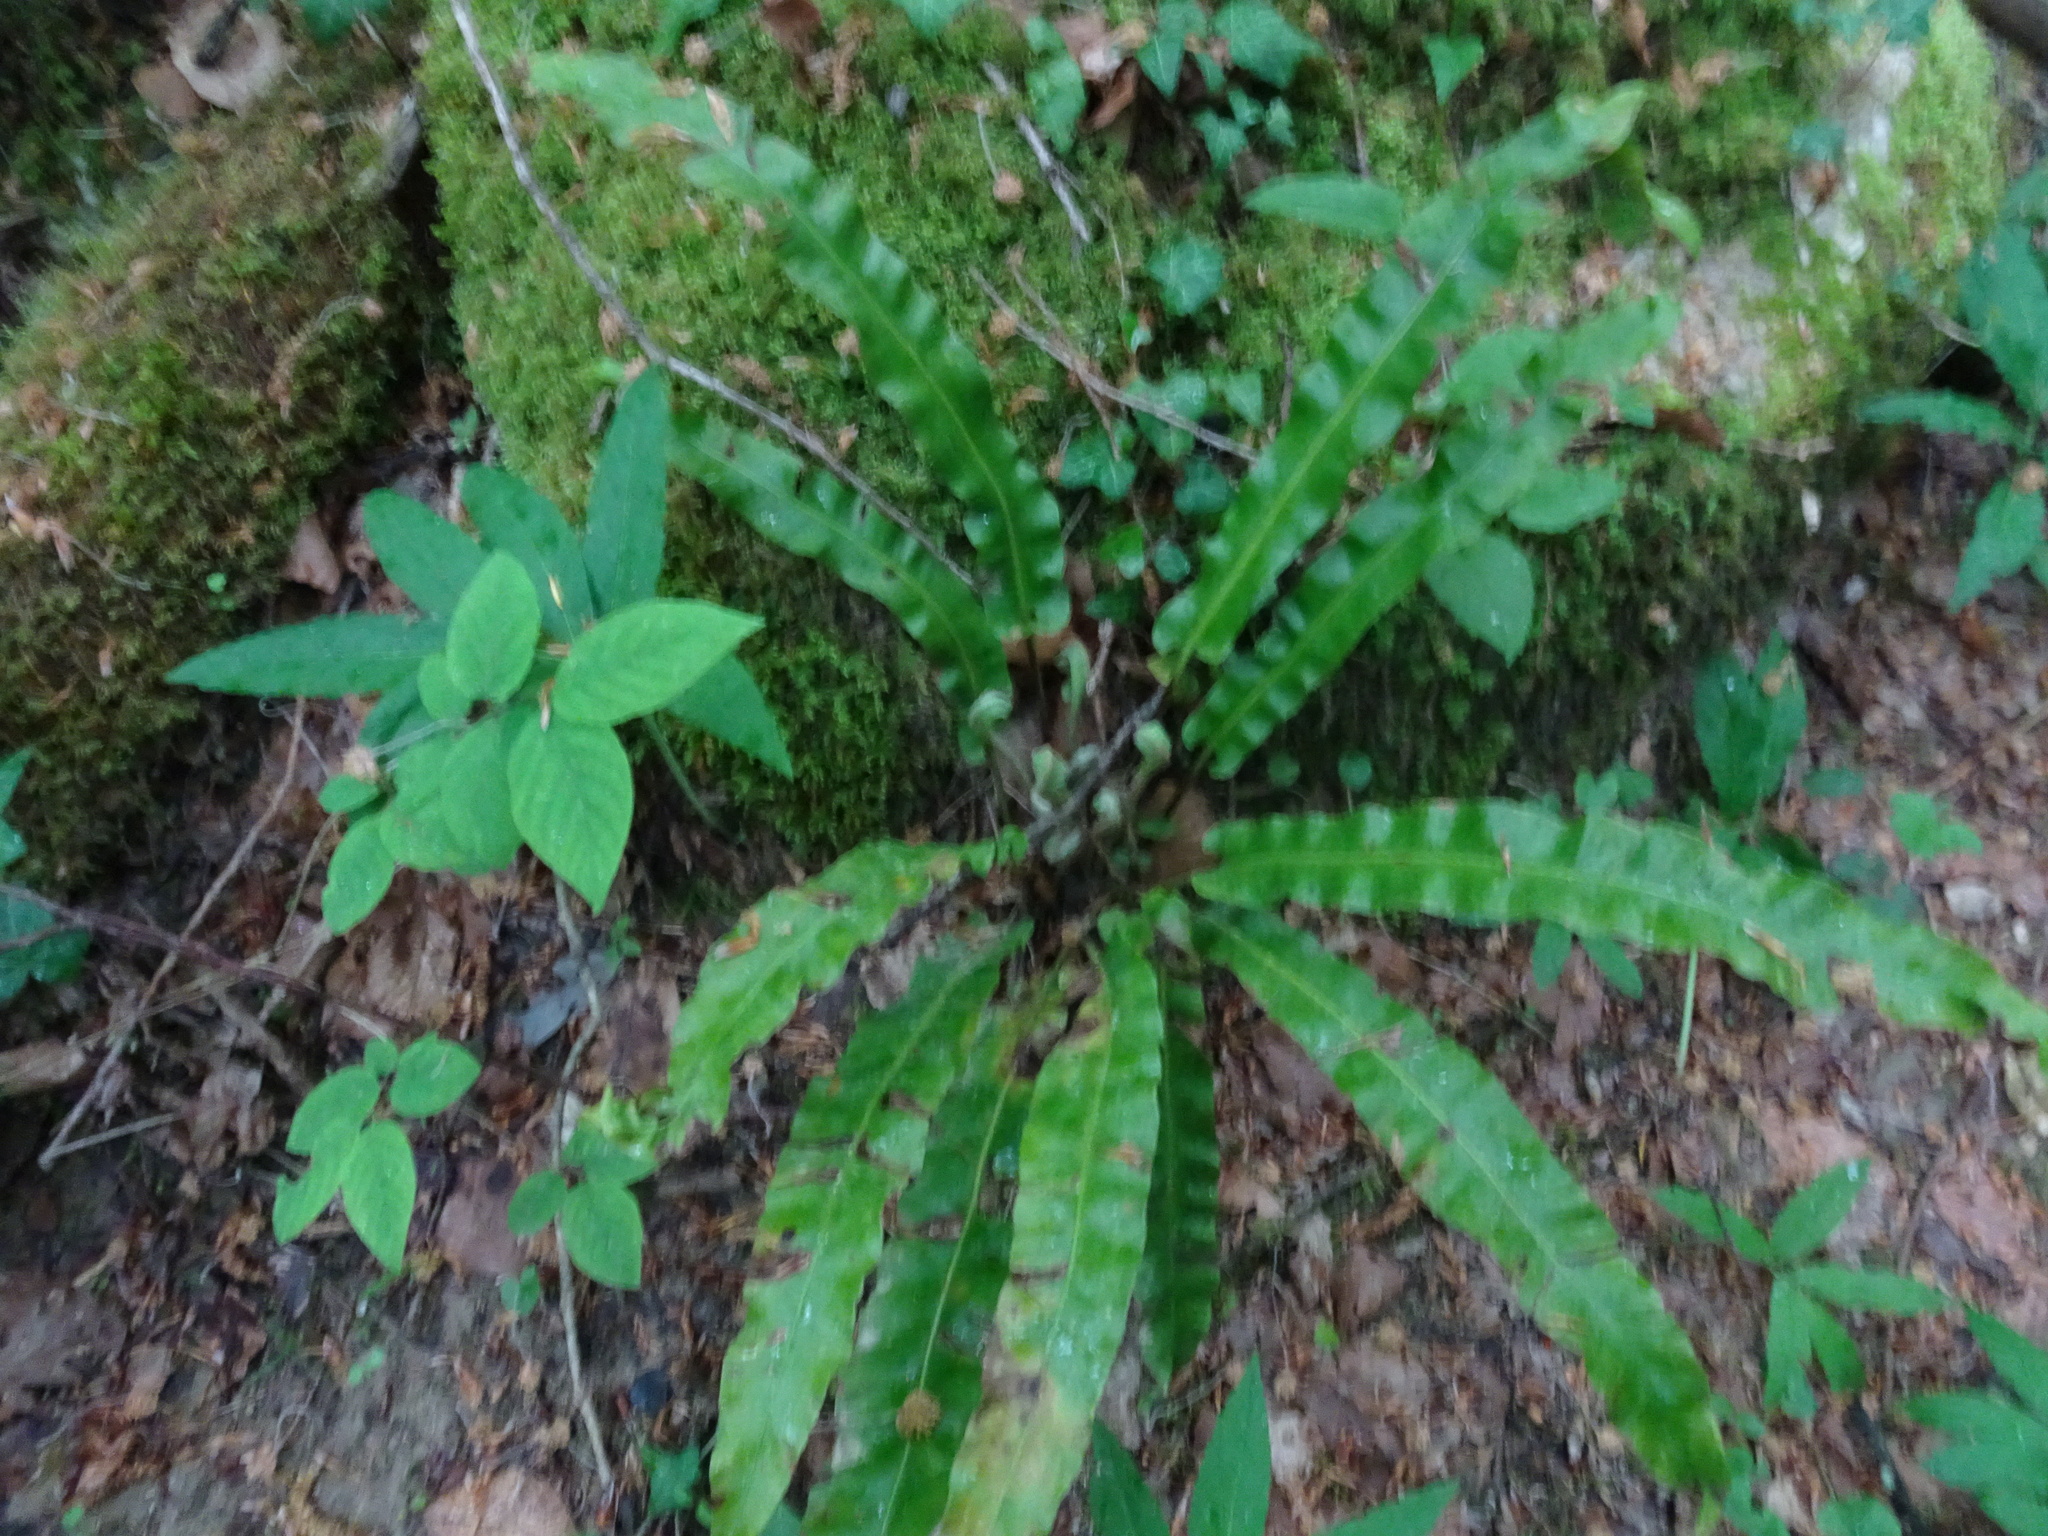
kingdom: Plantae
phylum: Tracheophyta
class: Polypodiopsida
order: Polypodiales
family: Aspleniaceae
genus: Asplenium
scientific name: Asplenium scolopendrium
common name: Hart's-tongue fern
